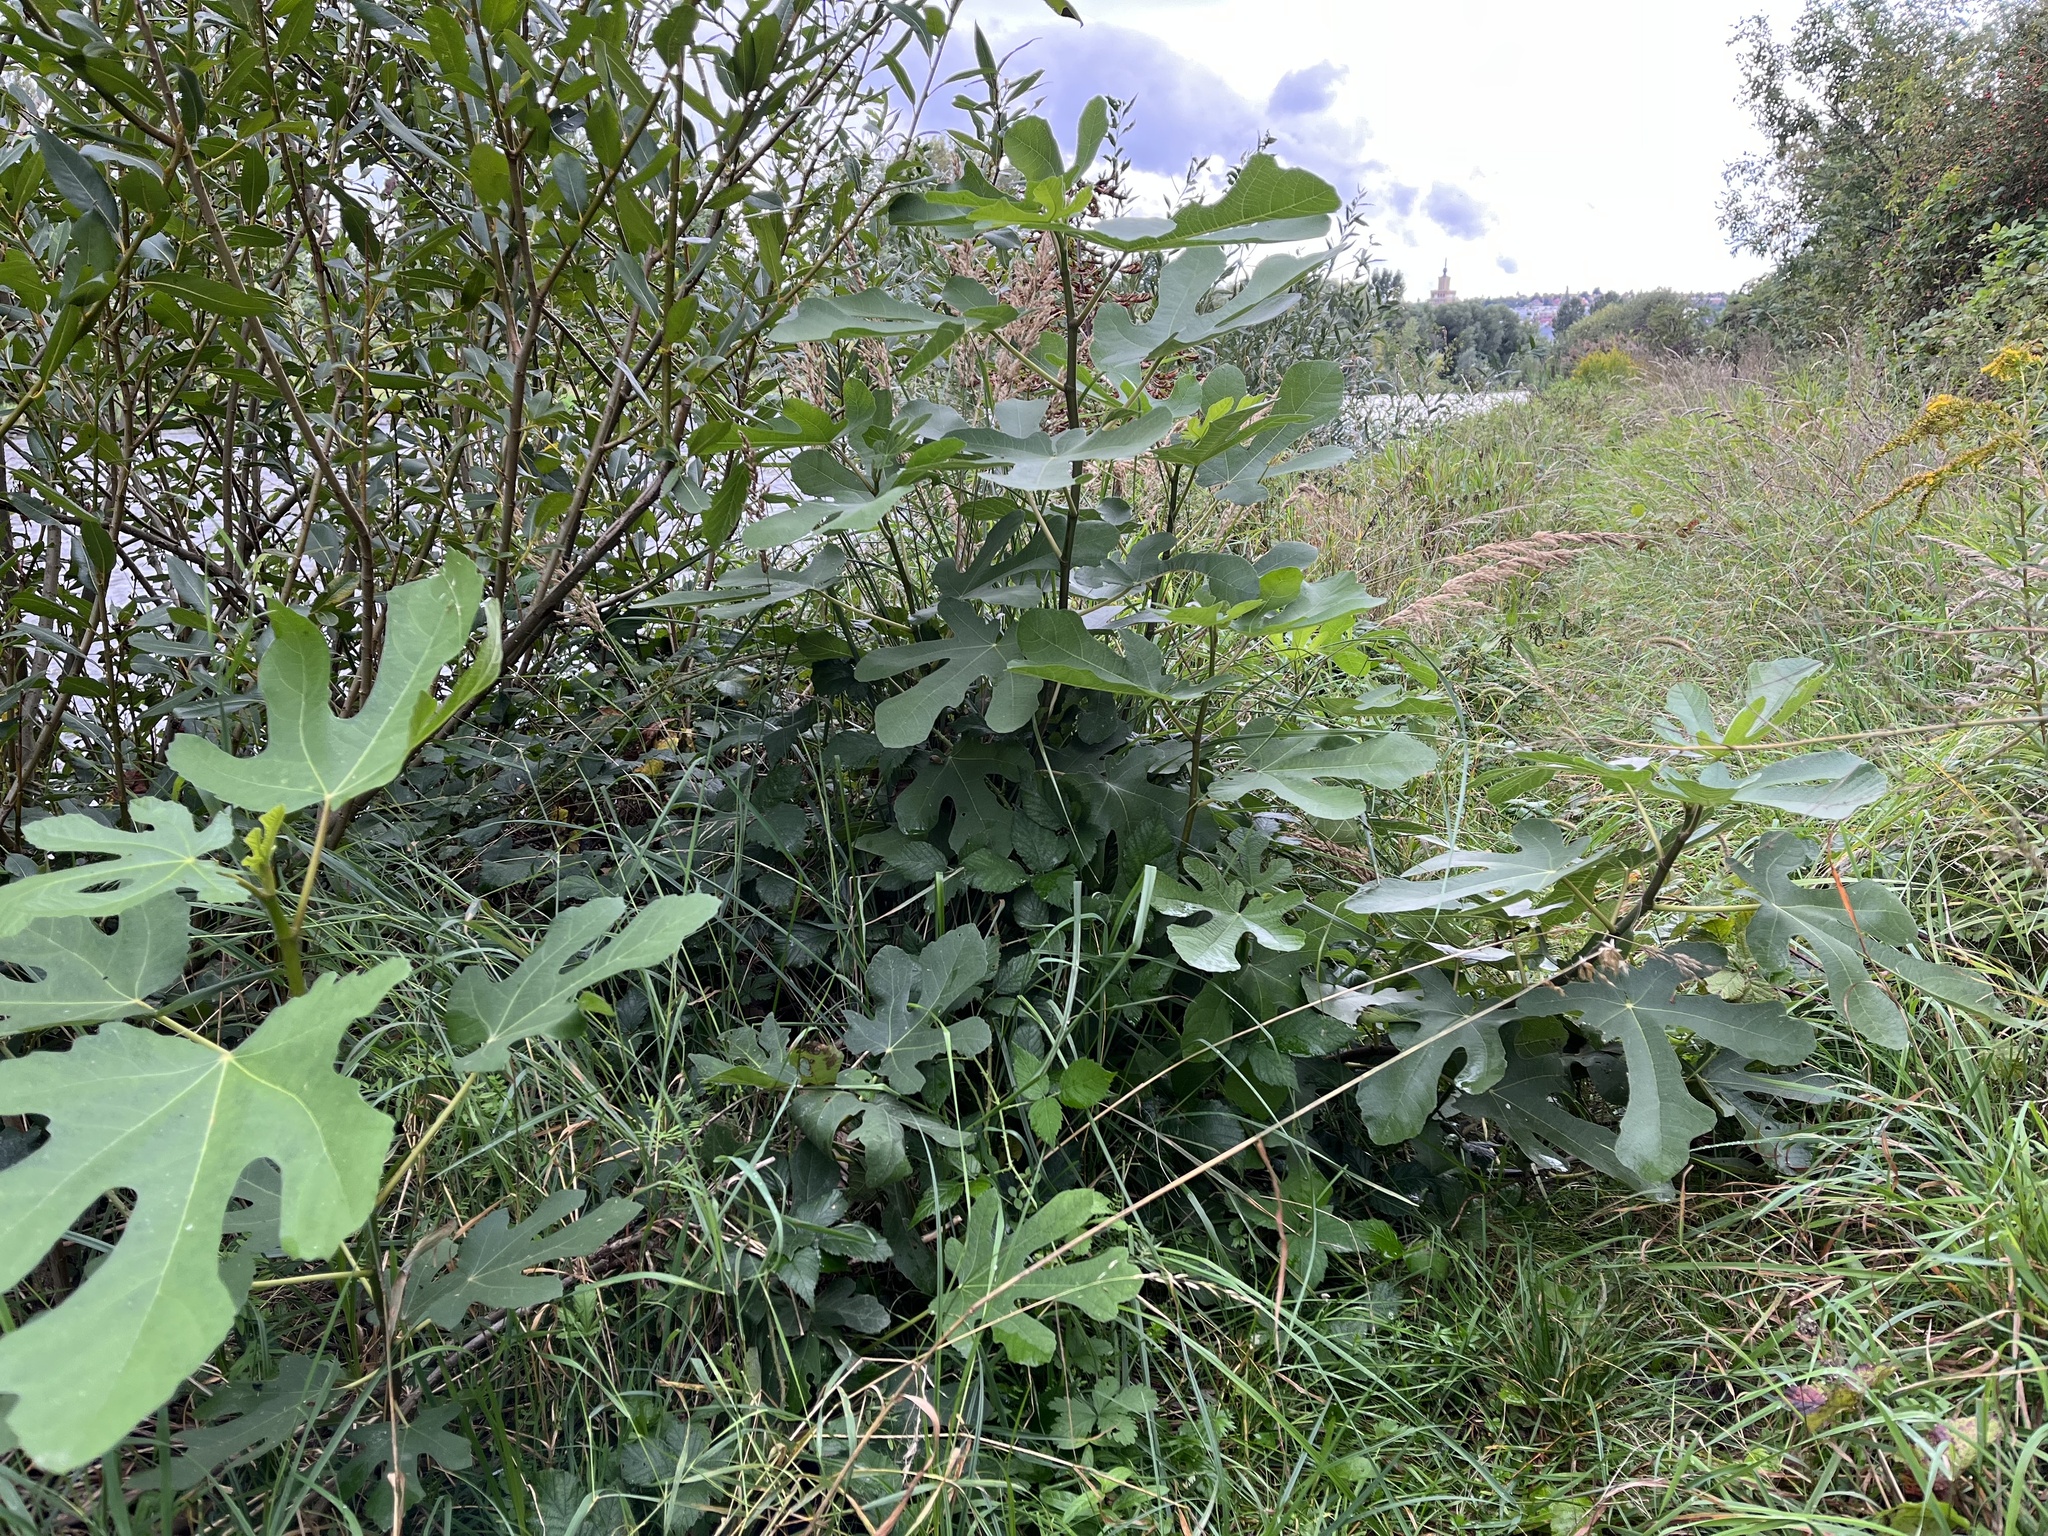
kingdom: Plantae
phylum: Tracheophyta
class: Magnoliopsida
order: Rosales
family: Moraceae
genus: Ficus
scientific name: Ficus carica
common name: Fig
